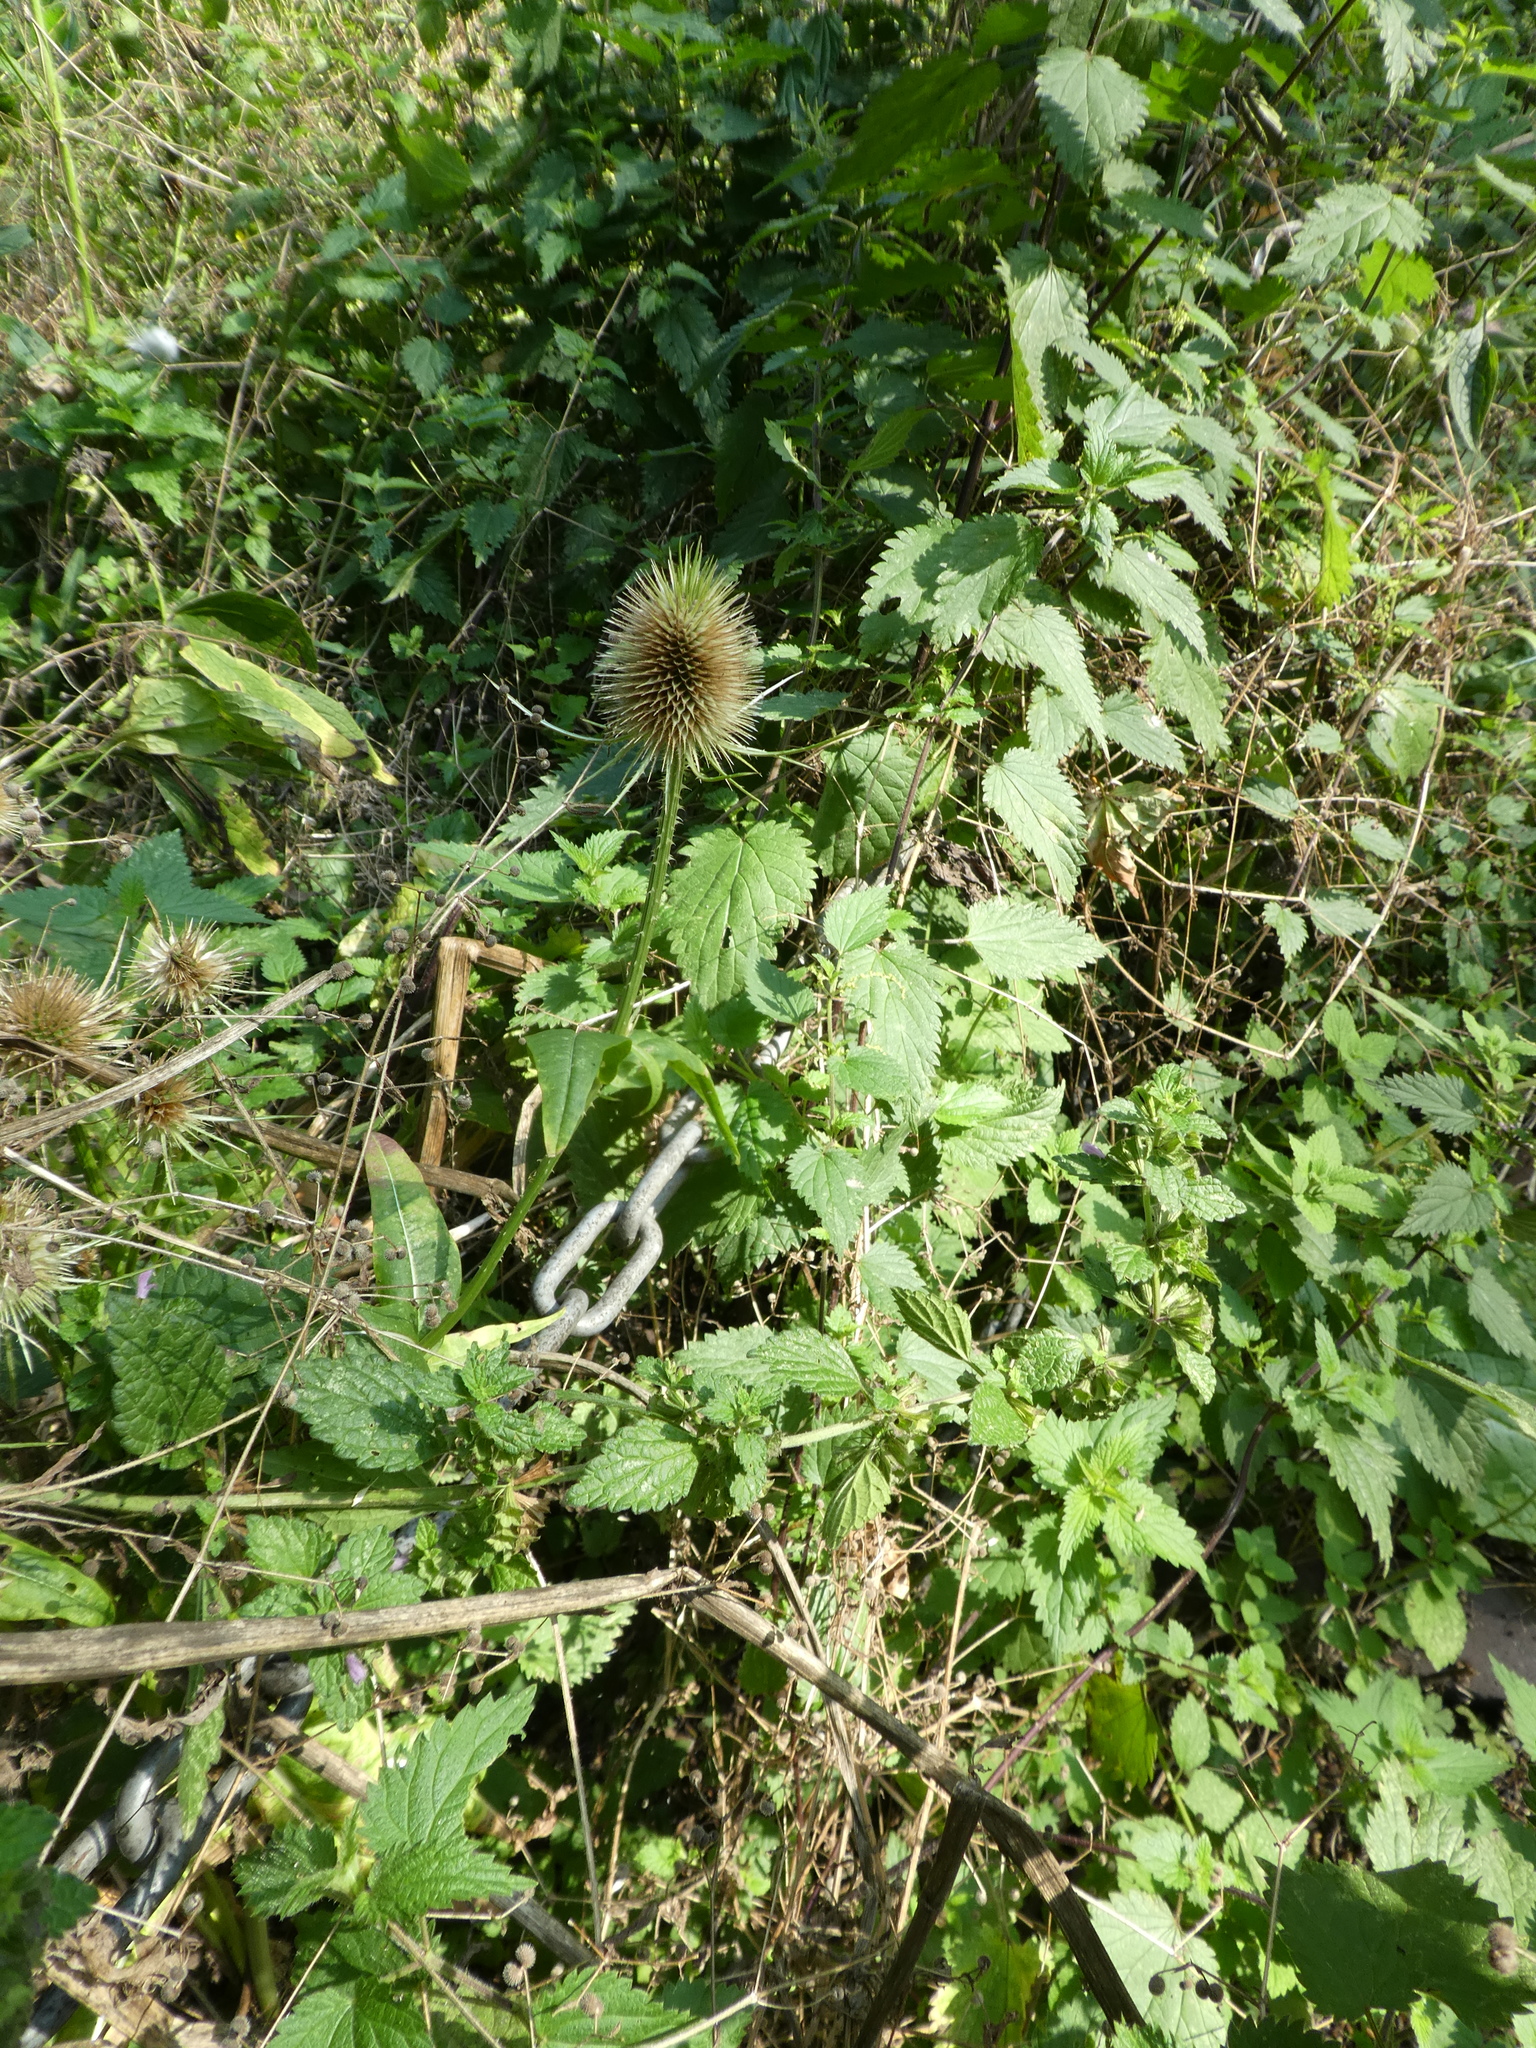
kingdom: Plantae
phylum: Tracheophyta
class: Magnoliopsida
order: Dipsacales
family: Caprifoliaceae
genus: Dipsacus
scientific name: Dipsacus fullonum
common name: Teasel
